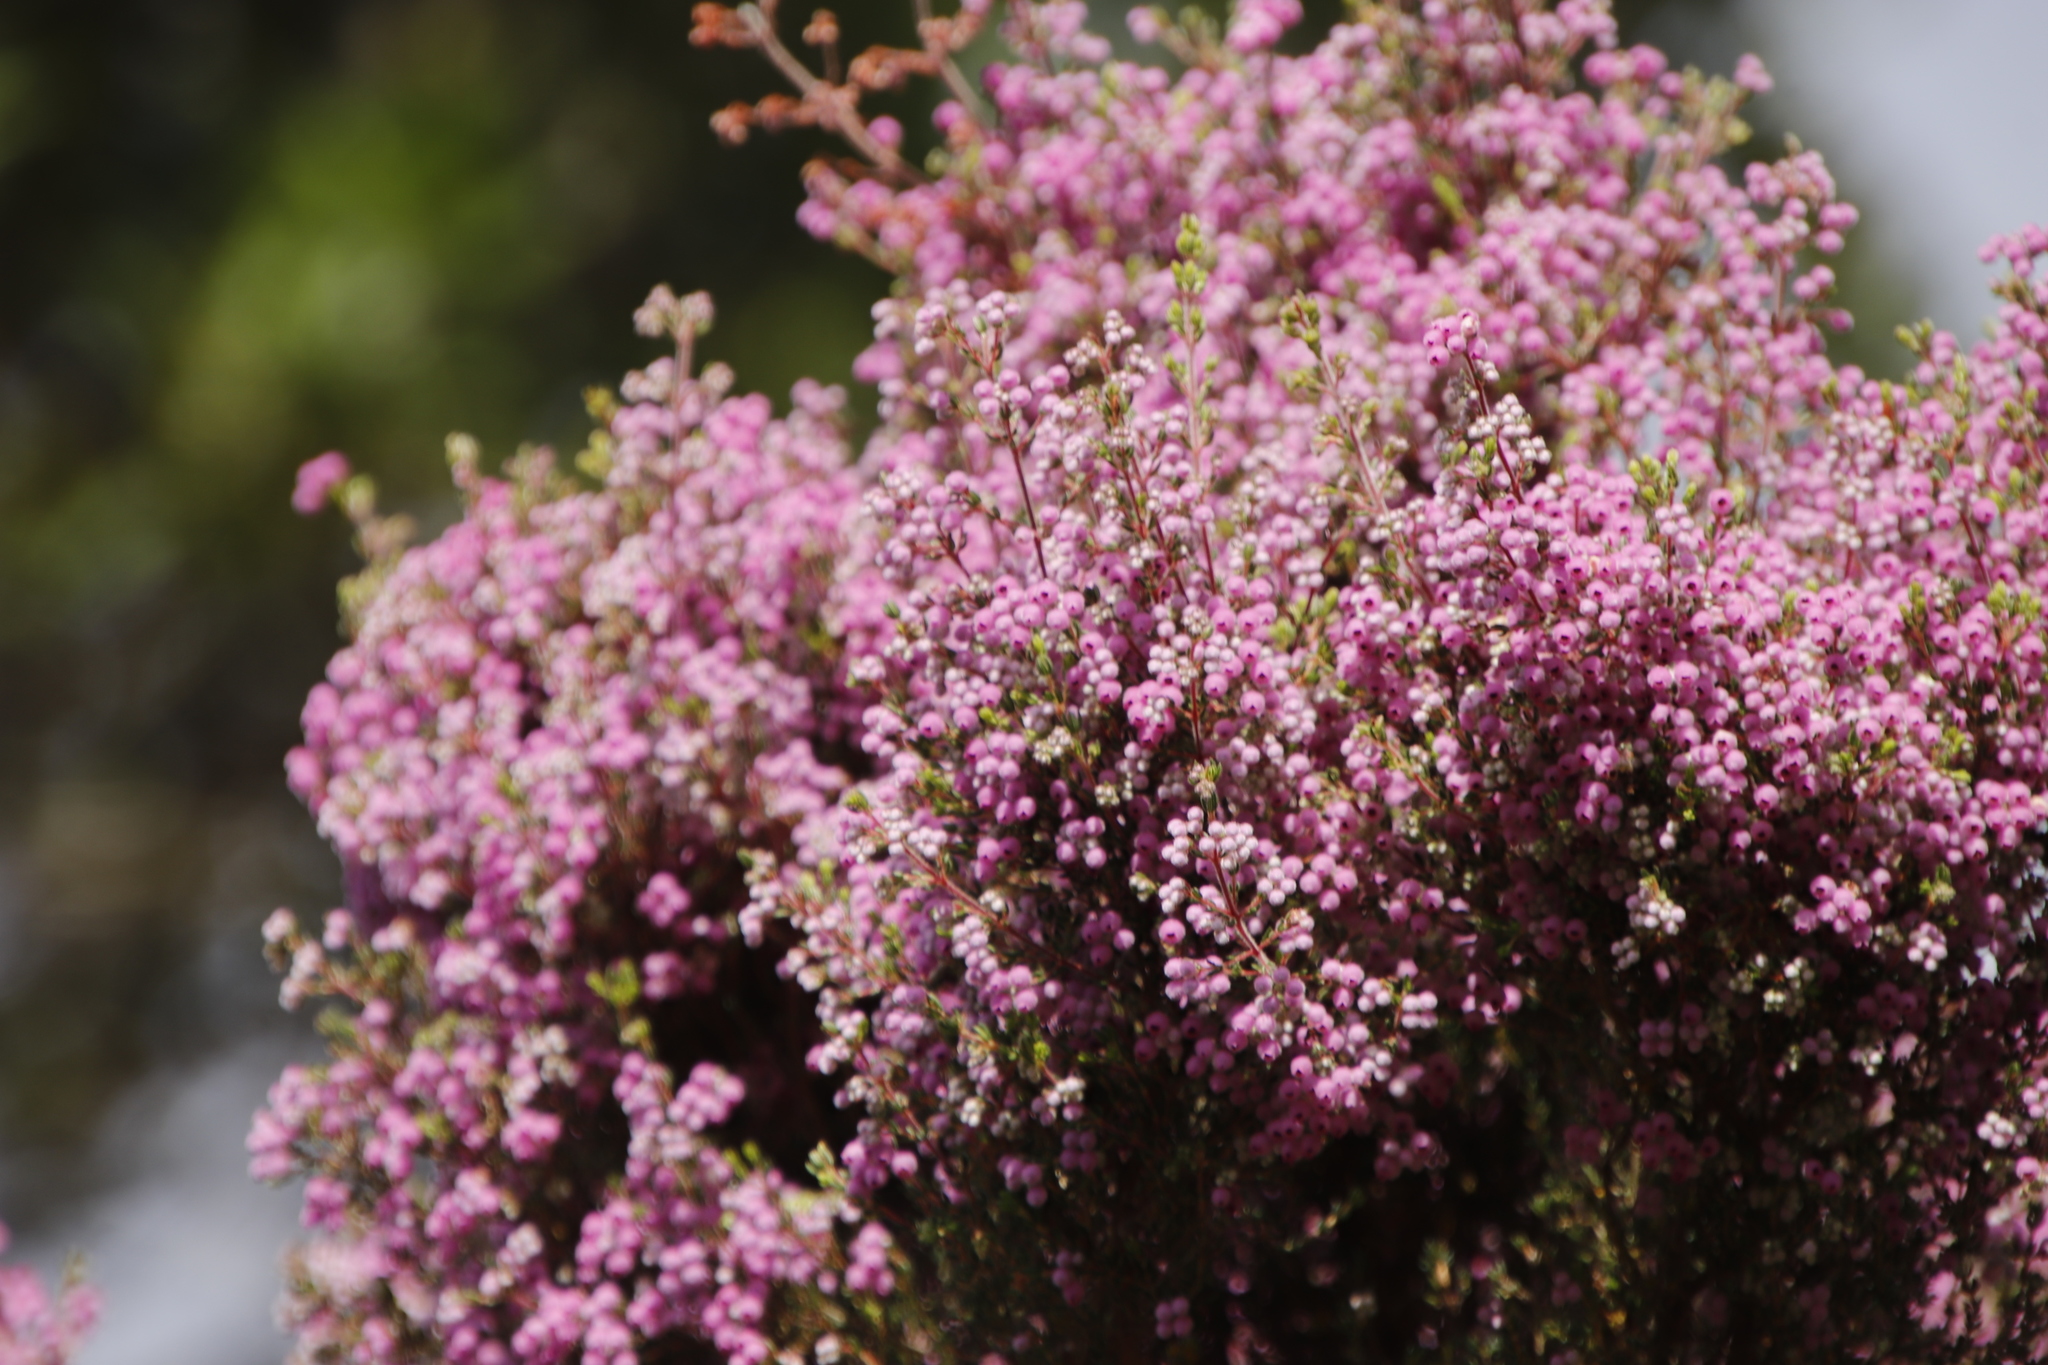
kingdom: Plantae
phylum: Tracheophyta
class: Magnoliopsida
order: Ericales
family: Ericaceae
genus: Erica
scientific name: Erica hirtiflora
